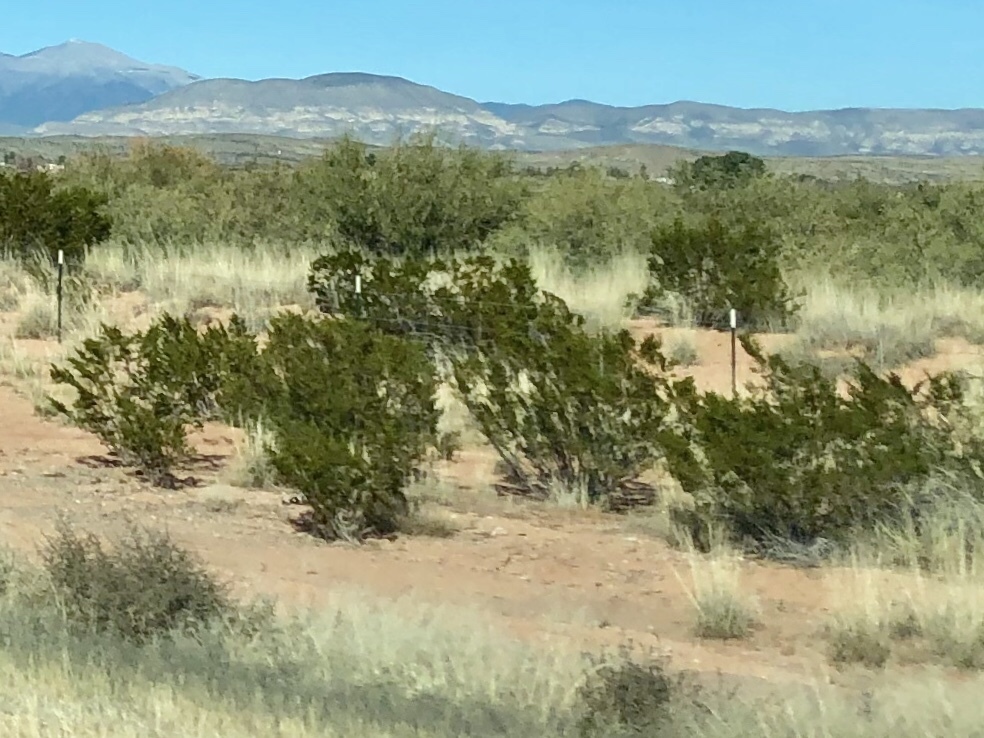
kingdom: Plantae
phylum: Tracheophyta
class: Magnoliopsida
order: Zygophyllales
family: Zygophyllaceae
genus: Larrea
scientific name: Larrea tridentata
